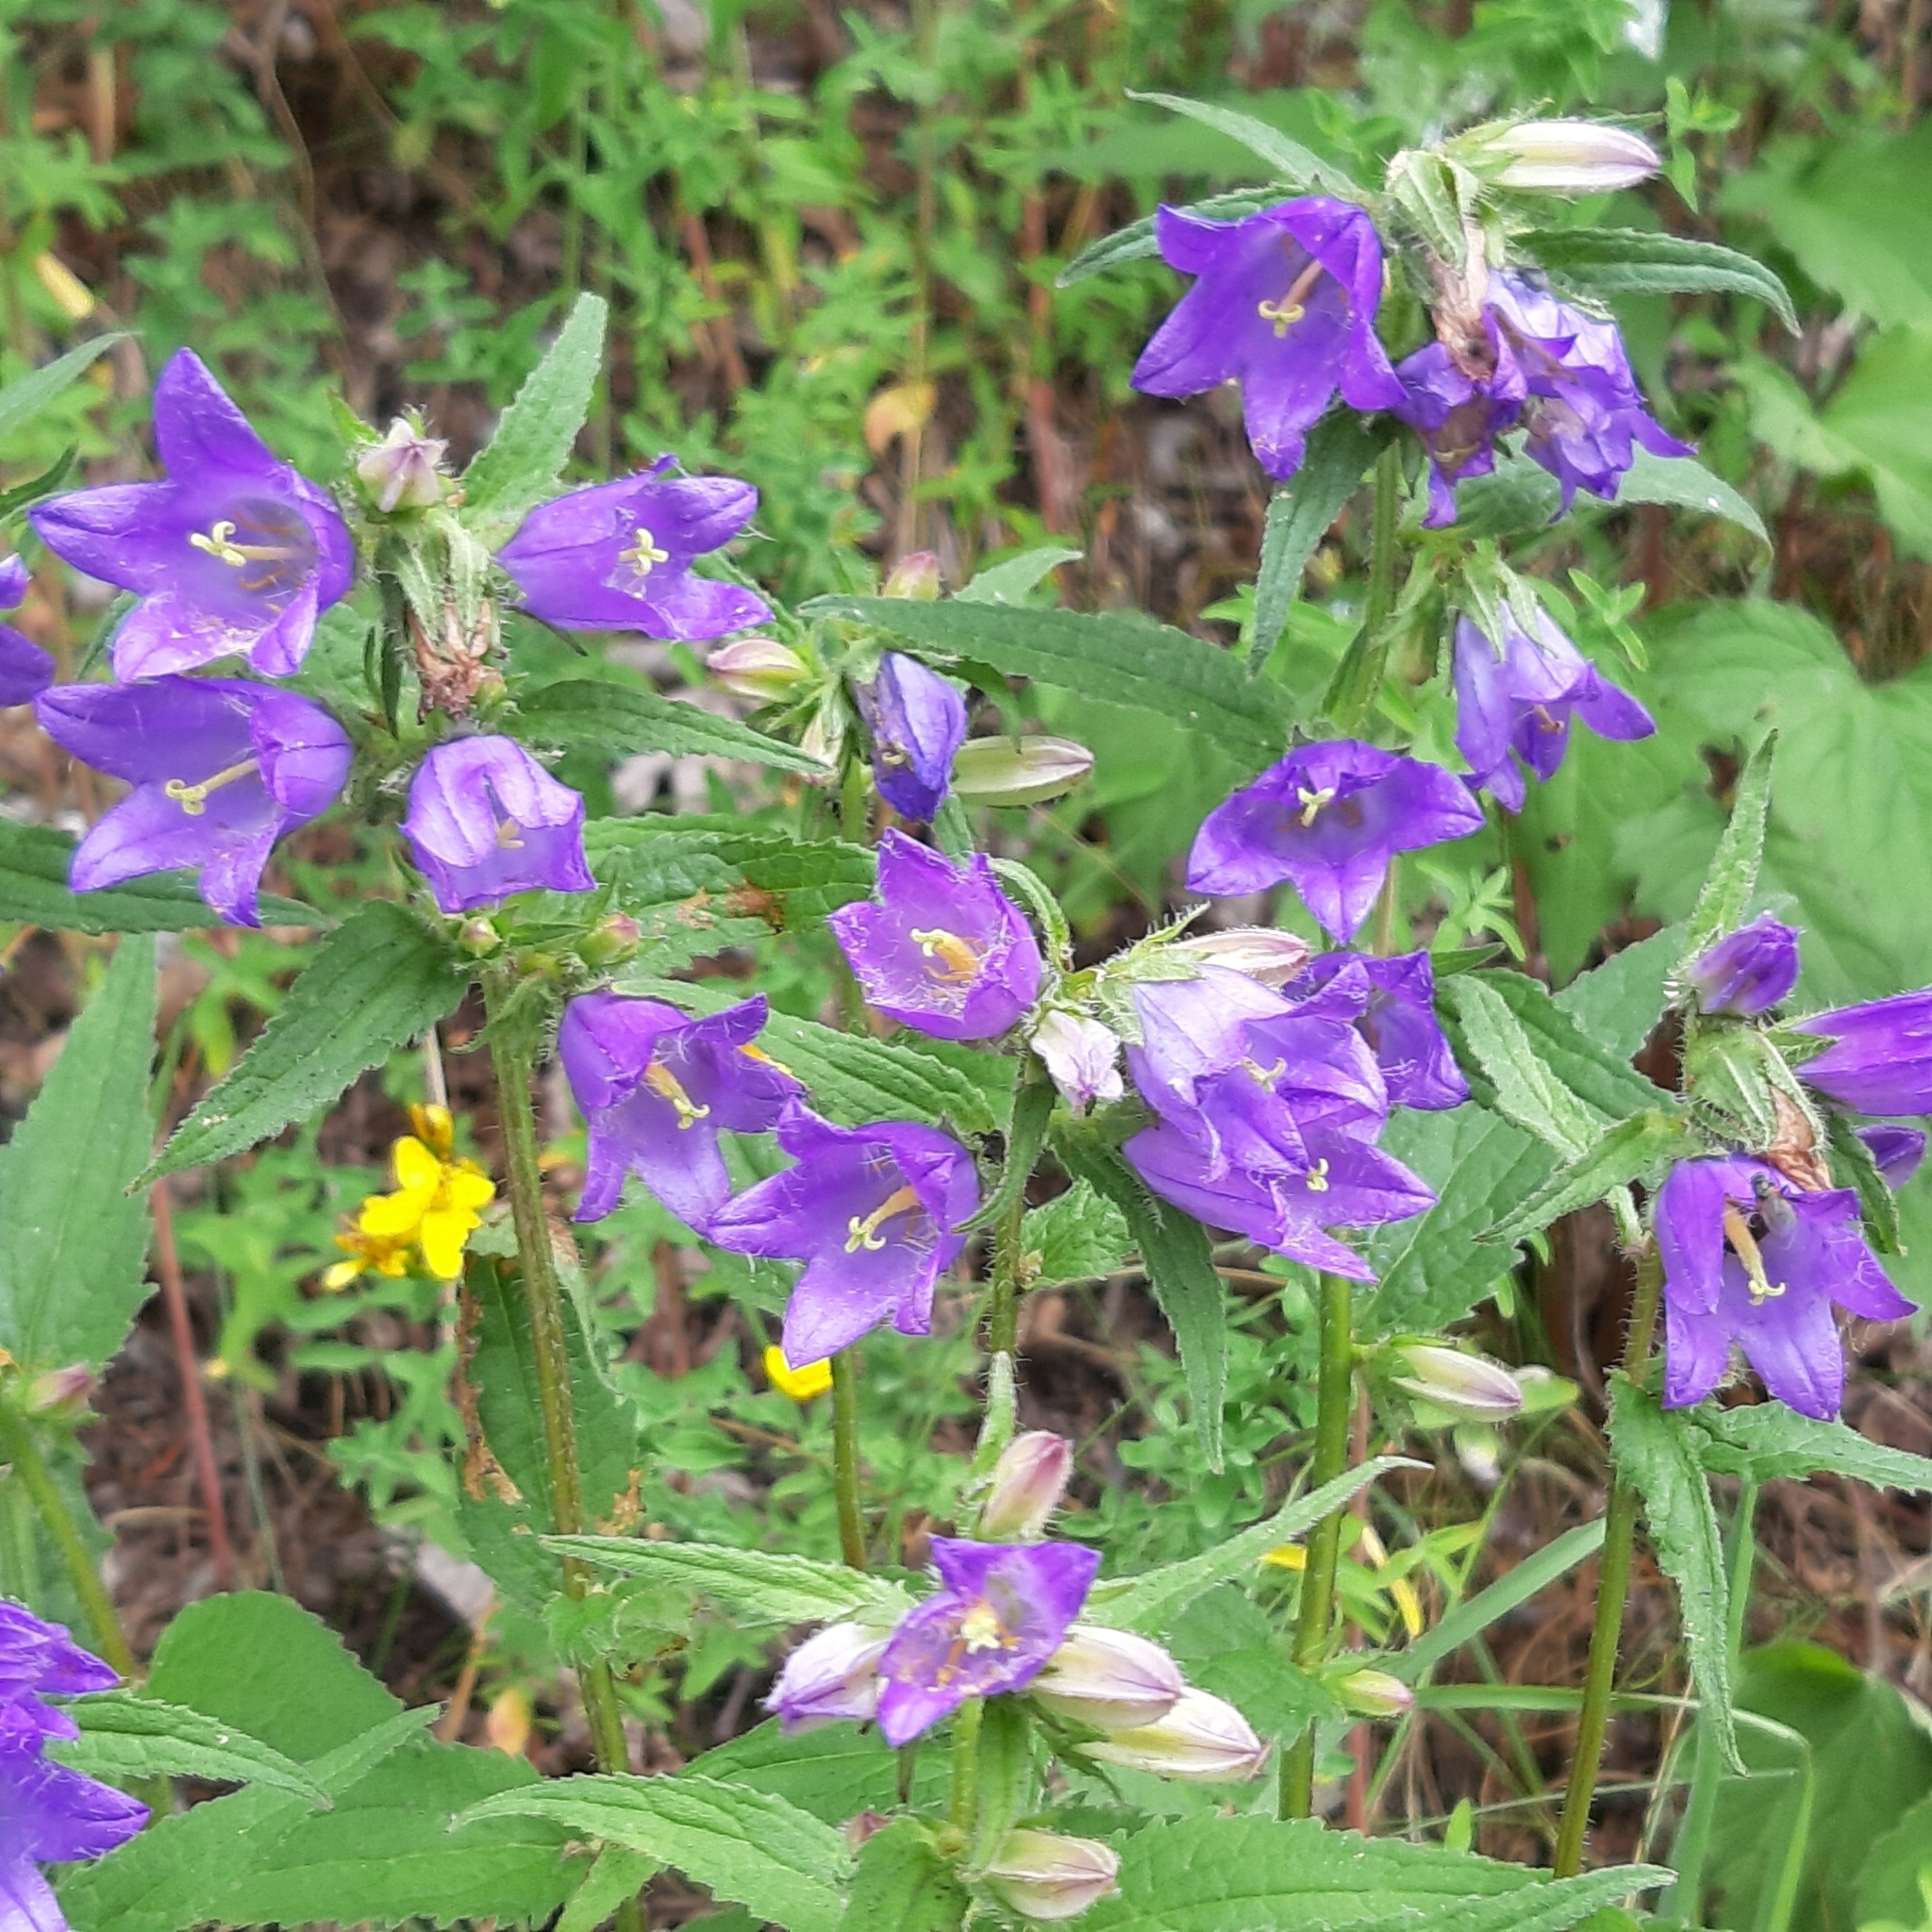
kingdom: Plantae
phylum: Tracheophyta
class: Magnoliopsida
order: Asterales
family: Campanulaceae
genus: Campanula
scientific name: Campanula trachelium
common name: Nettle-leaved bellflower
